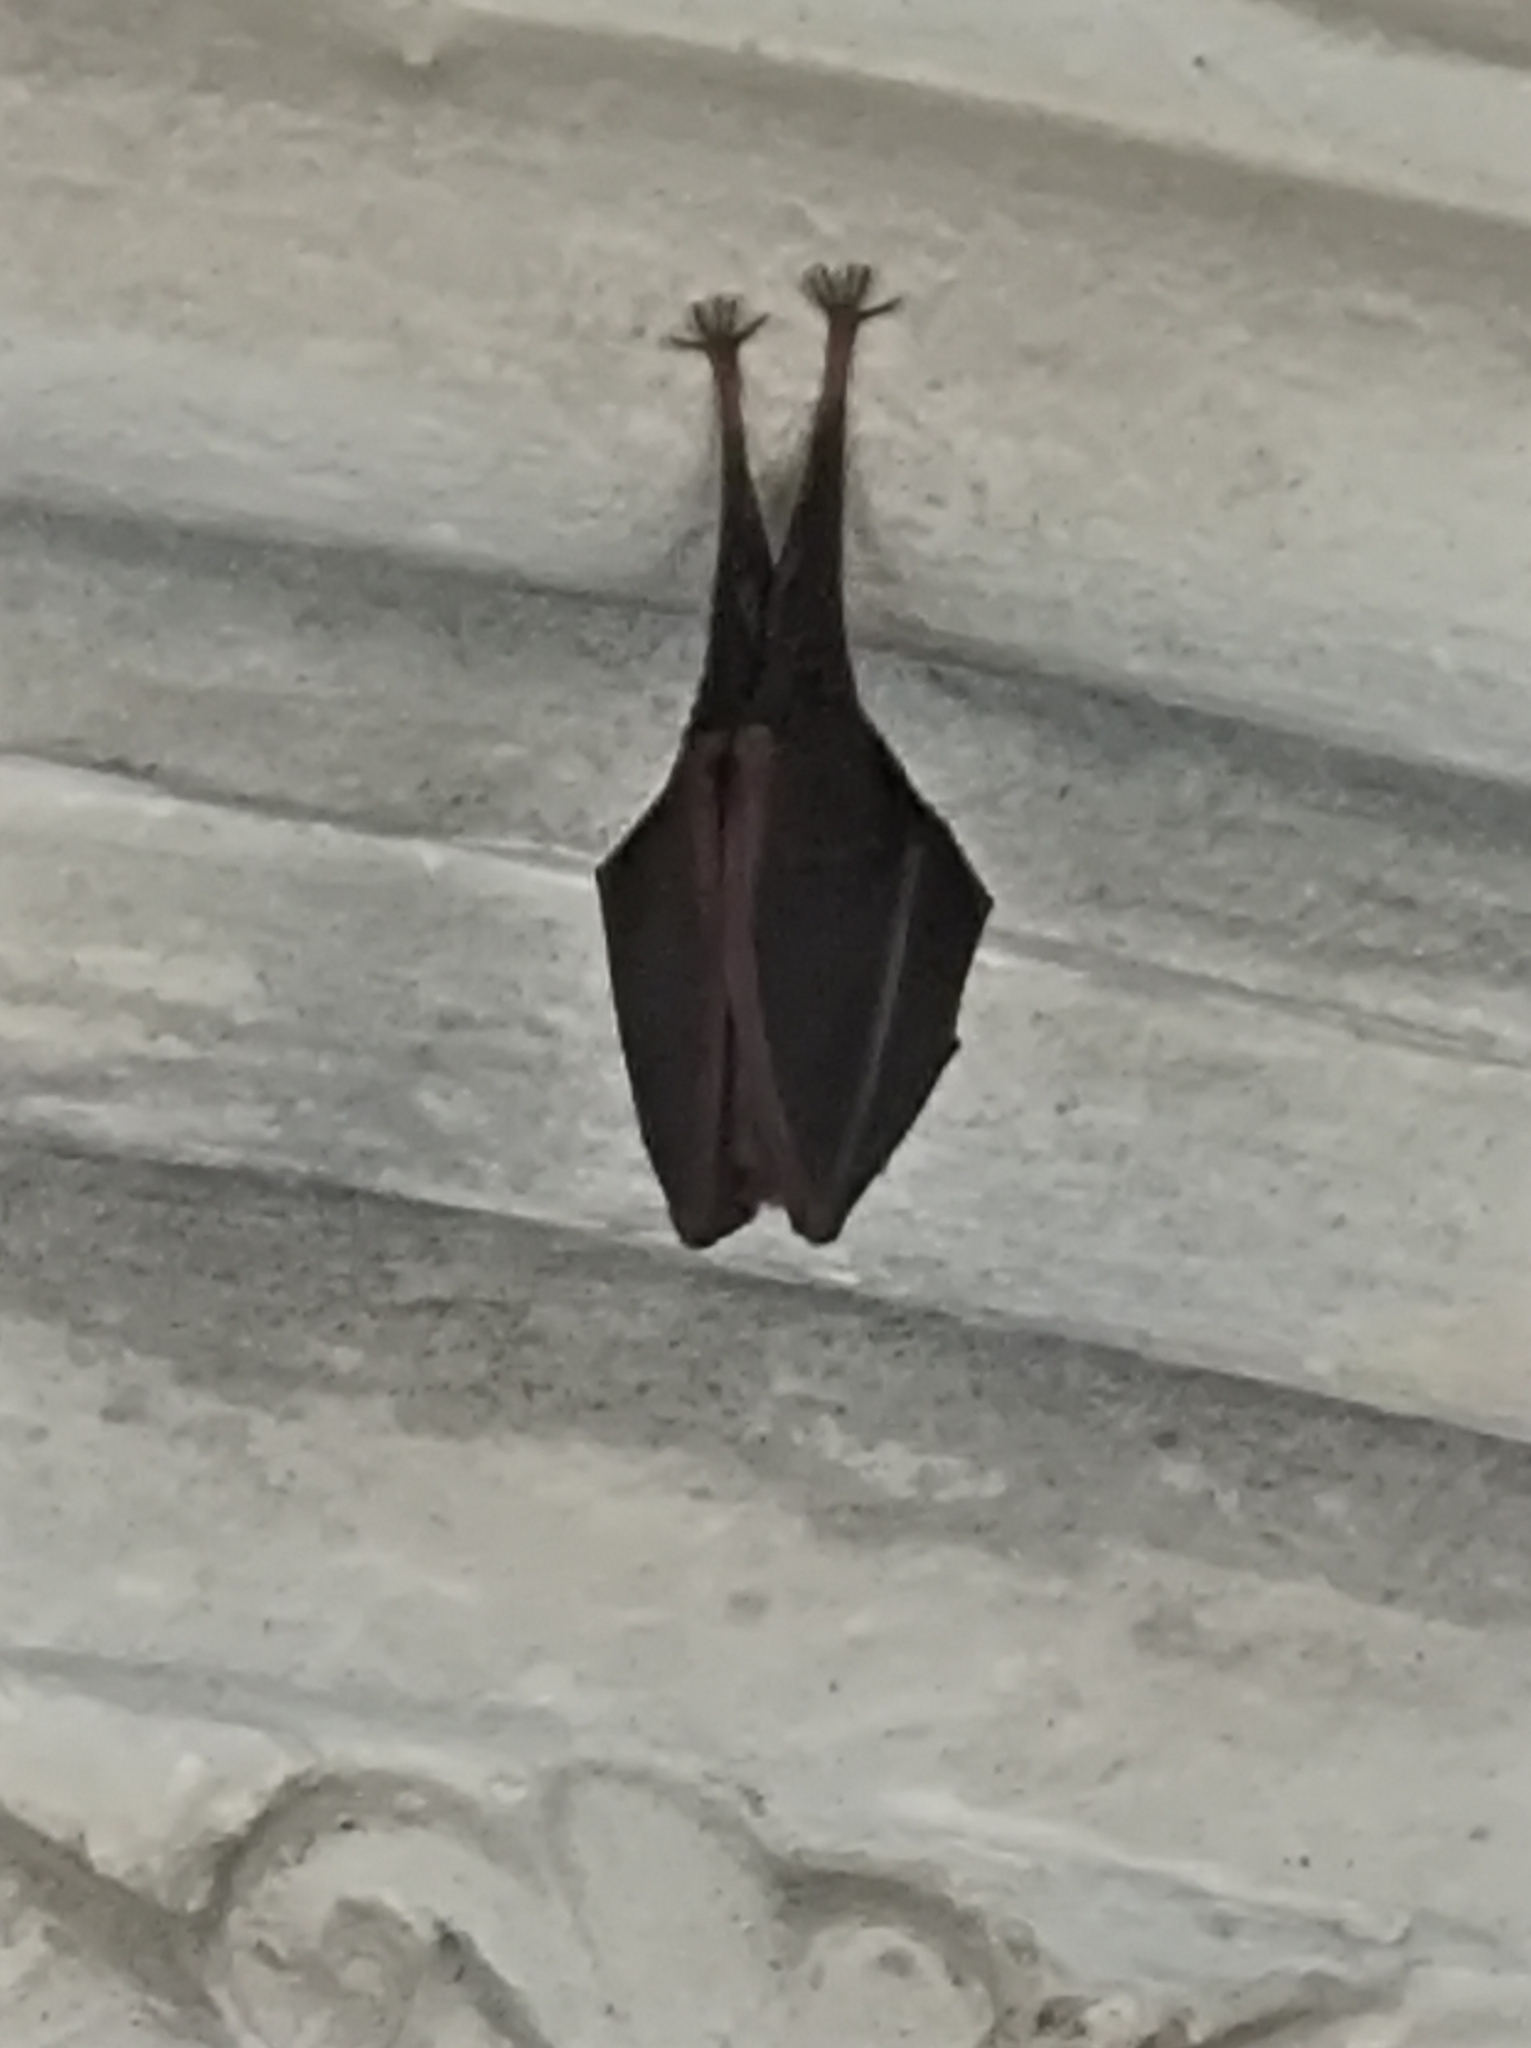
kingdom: Animalia
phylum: Chordata
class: Mammalia
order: Chiroptera
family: Rhinolophidae
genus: Rhinolophus
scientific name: Rhinolophus hipposideros
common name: Lesser horseshoe bat
